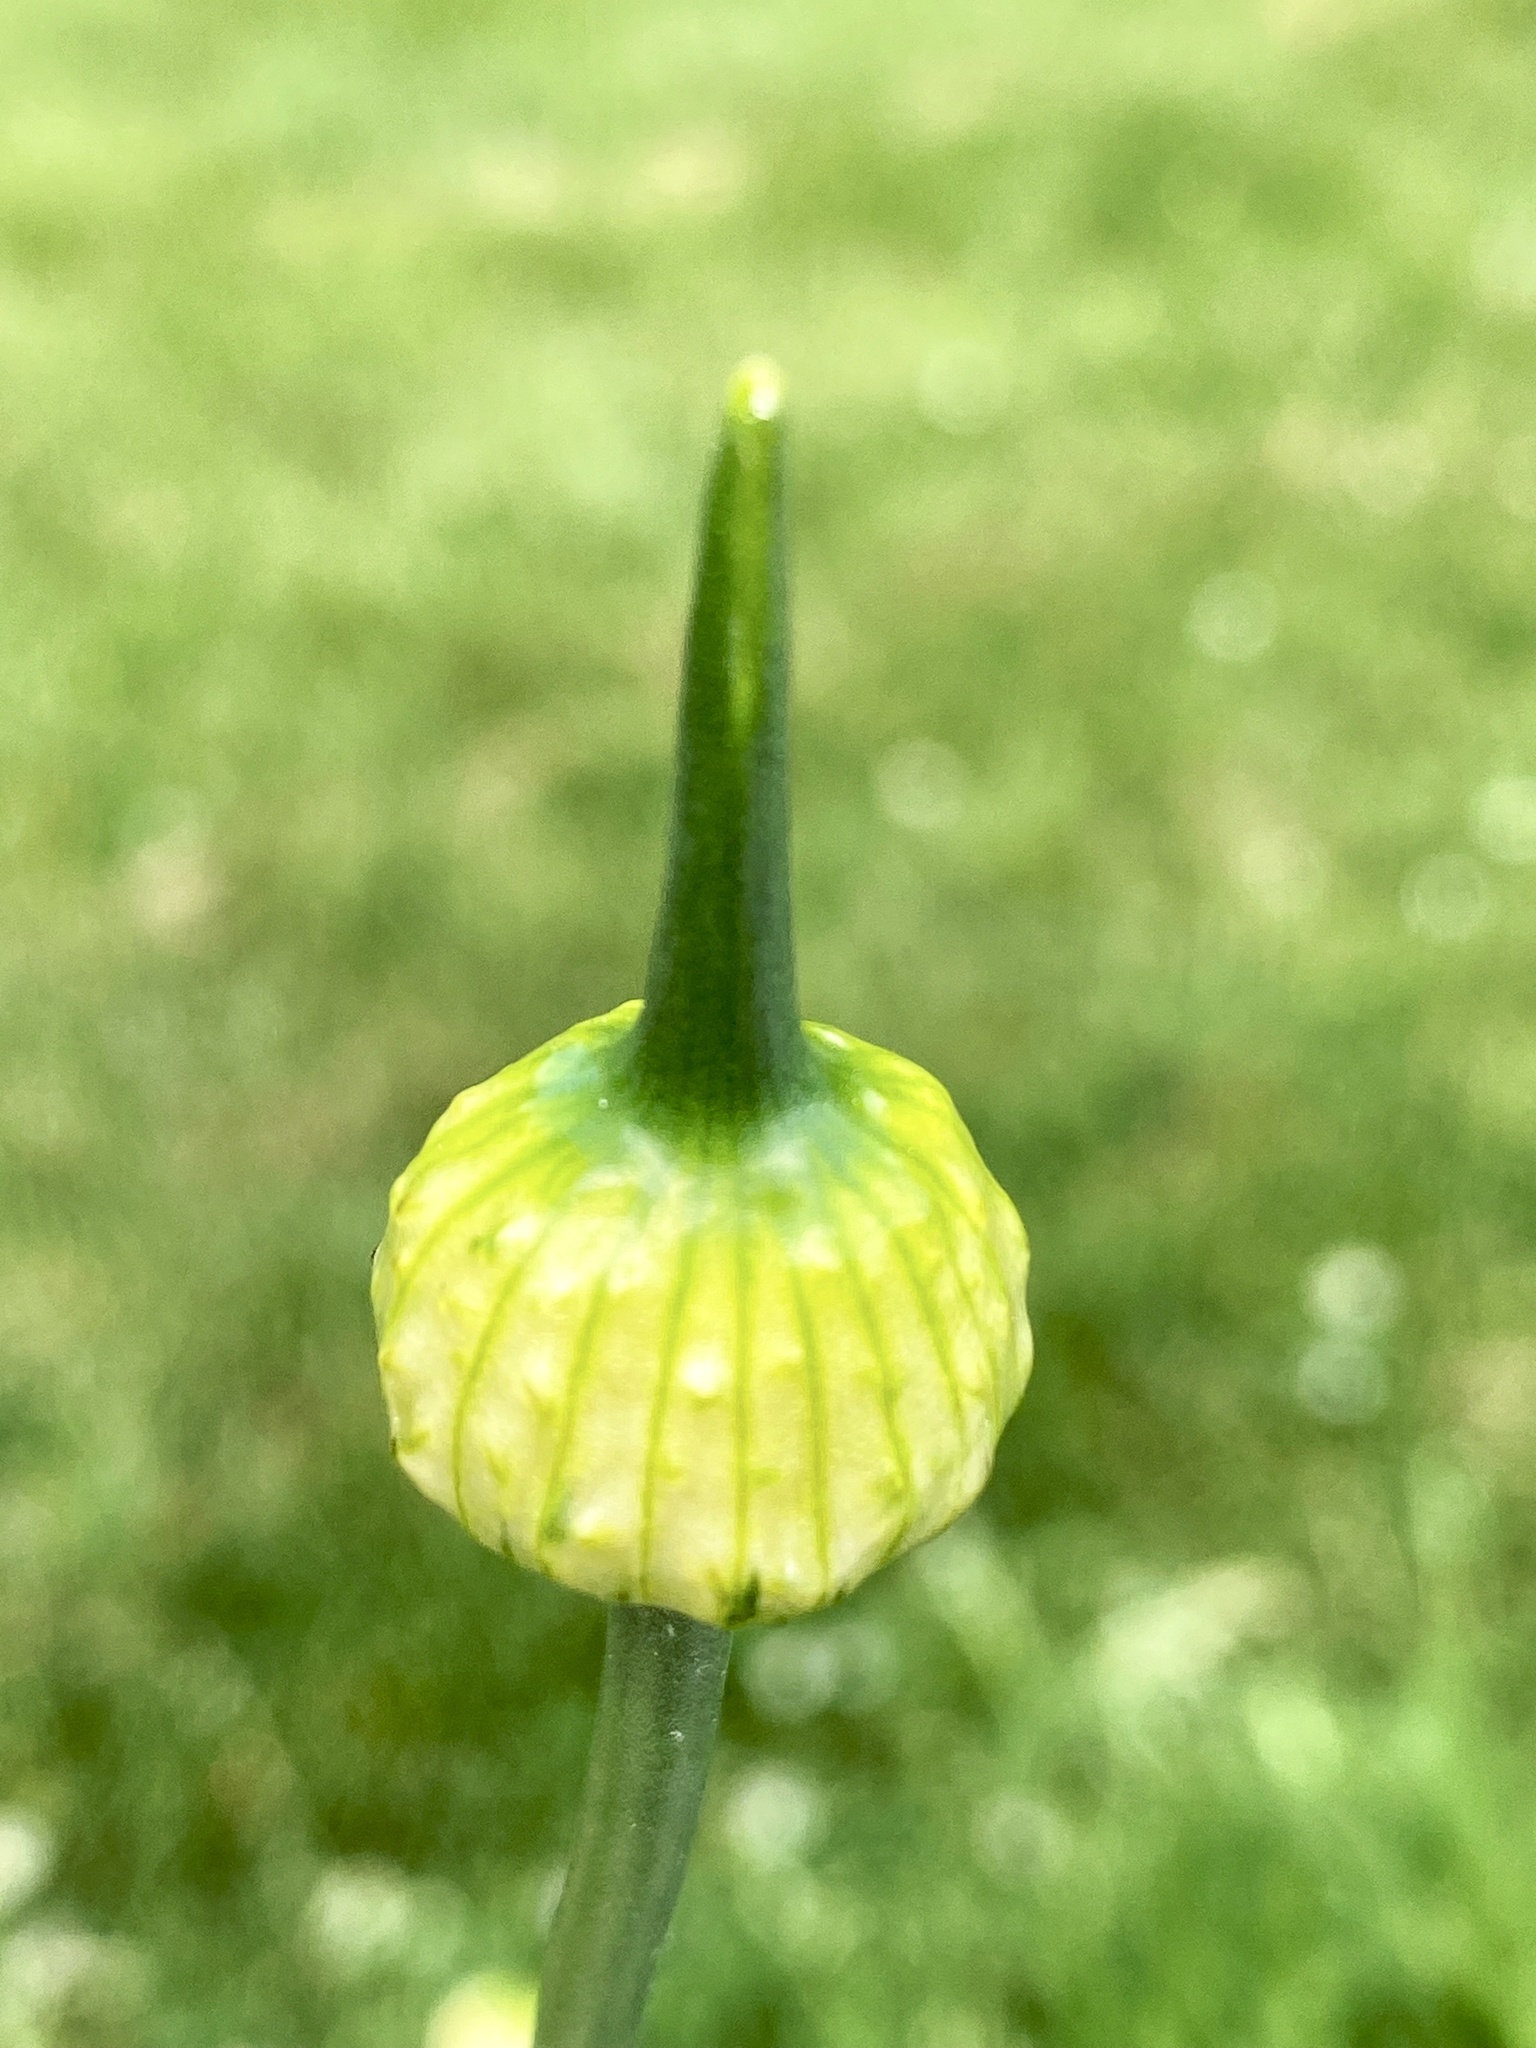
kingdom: Plantae
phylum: Tracheophyta
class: Liliopsida
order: Asparagales
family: Amaryllidaceae
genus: Allium
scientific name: Allium vineale
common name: Crow garlic
